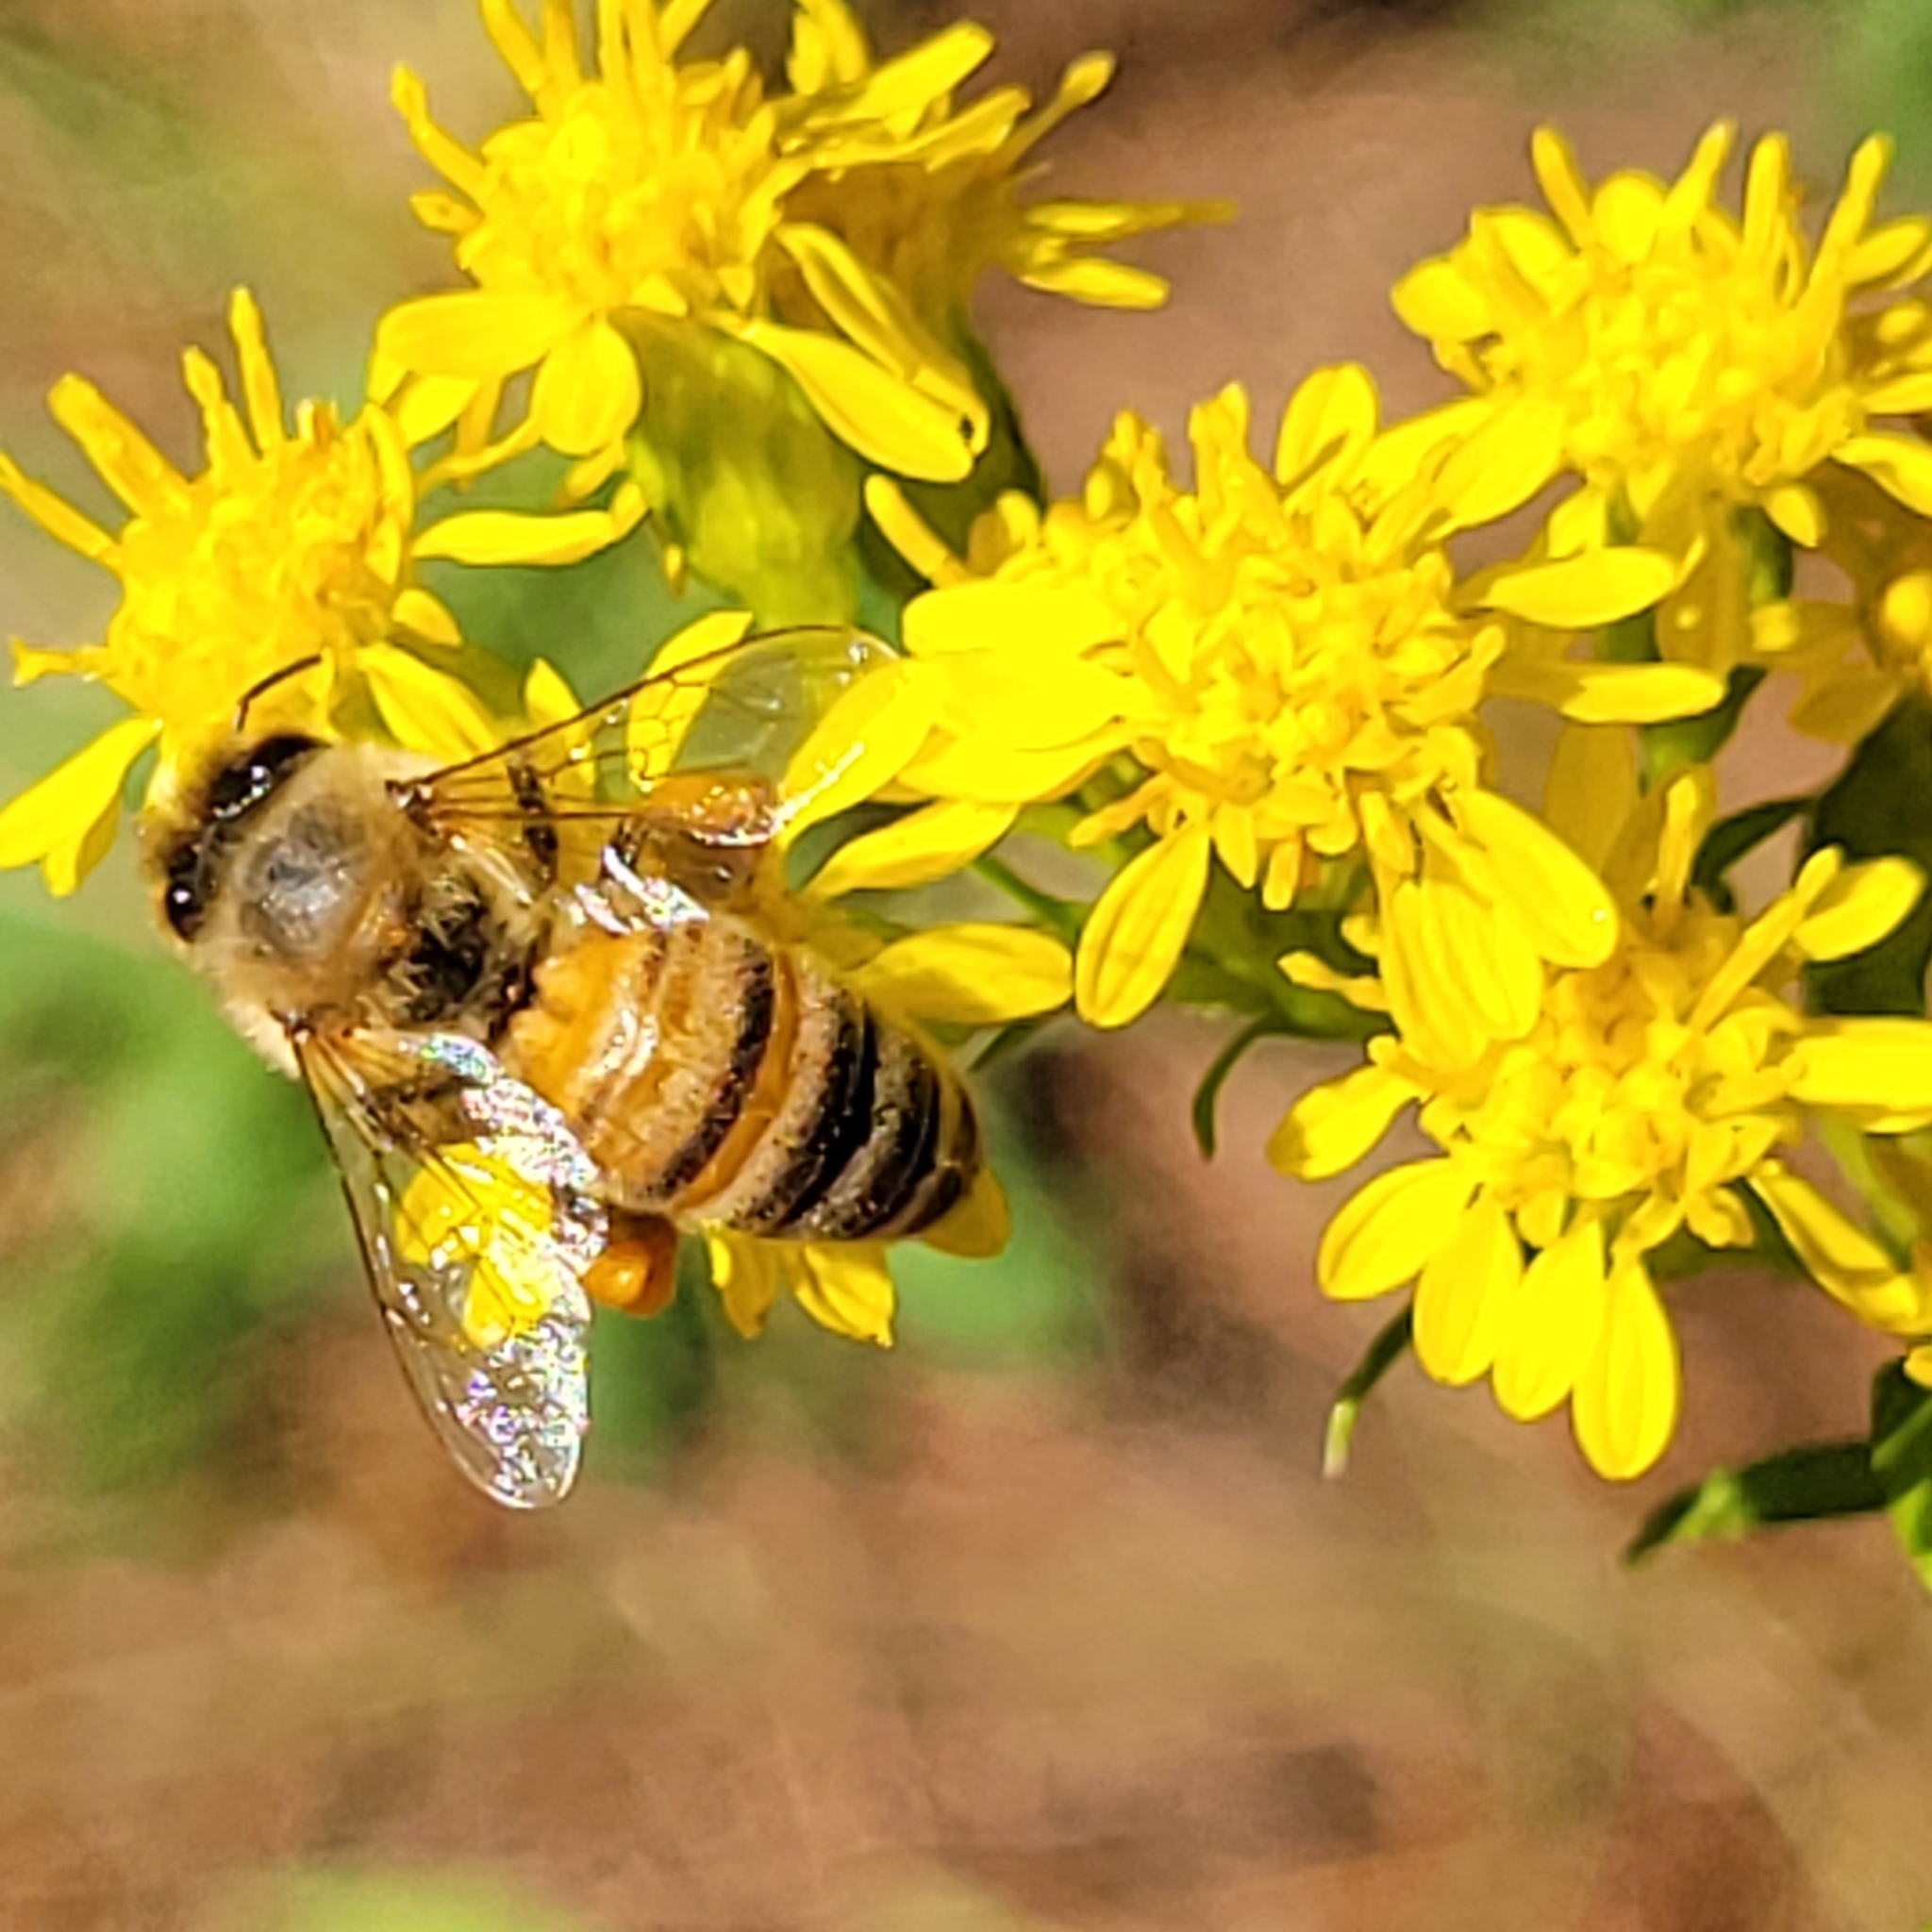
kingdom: Animalia
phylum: Arthropoda
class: Insecta
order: Hymenoptera
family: Apidae
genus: Apis
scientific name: Apis mellifera
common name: Honey bee
